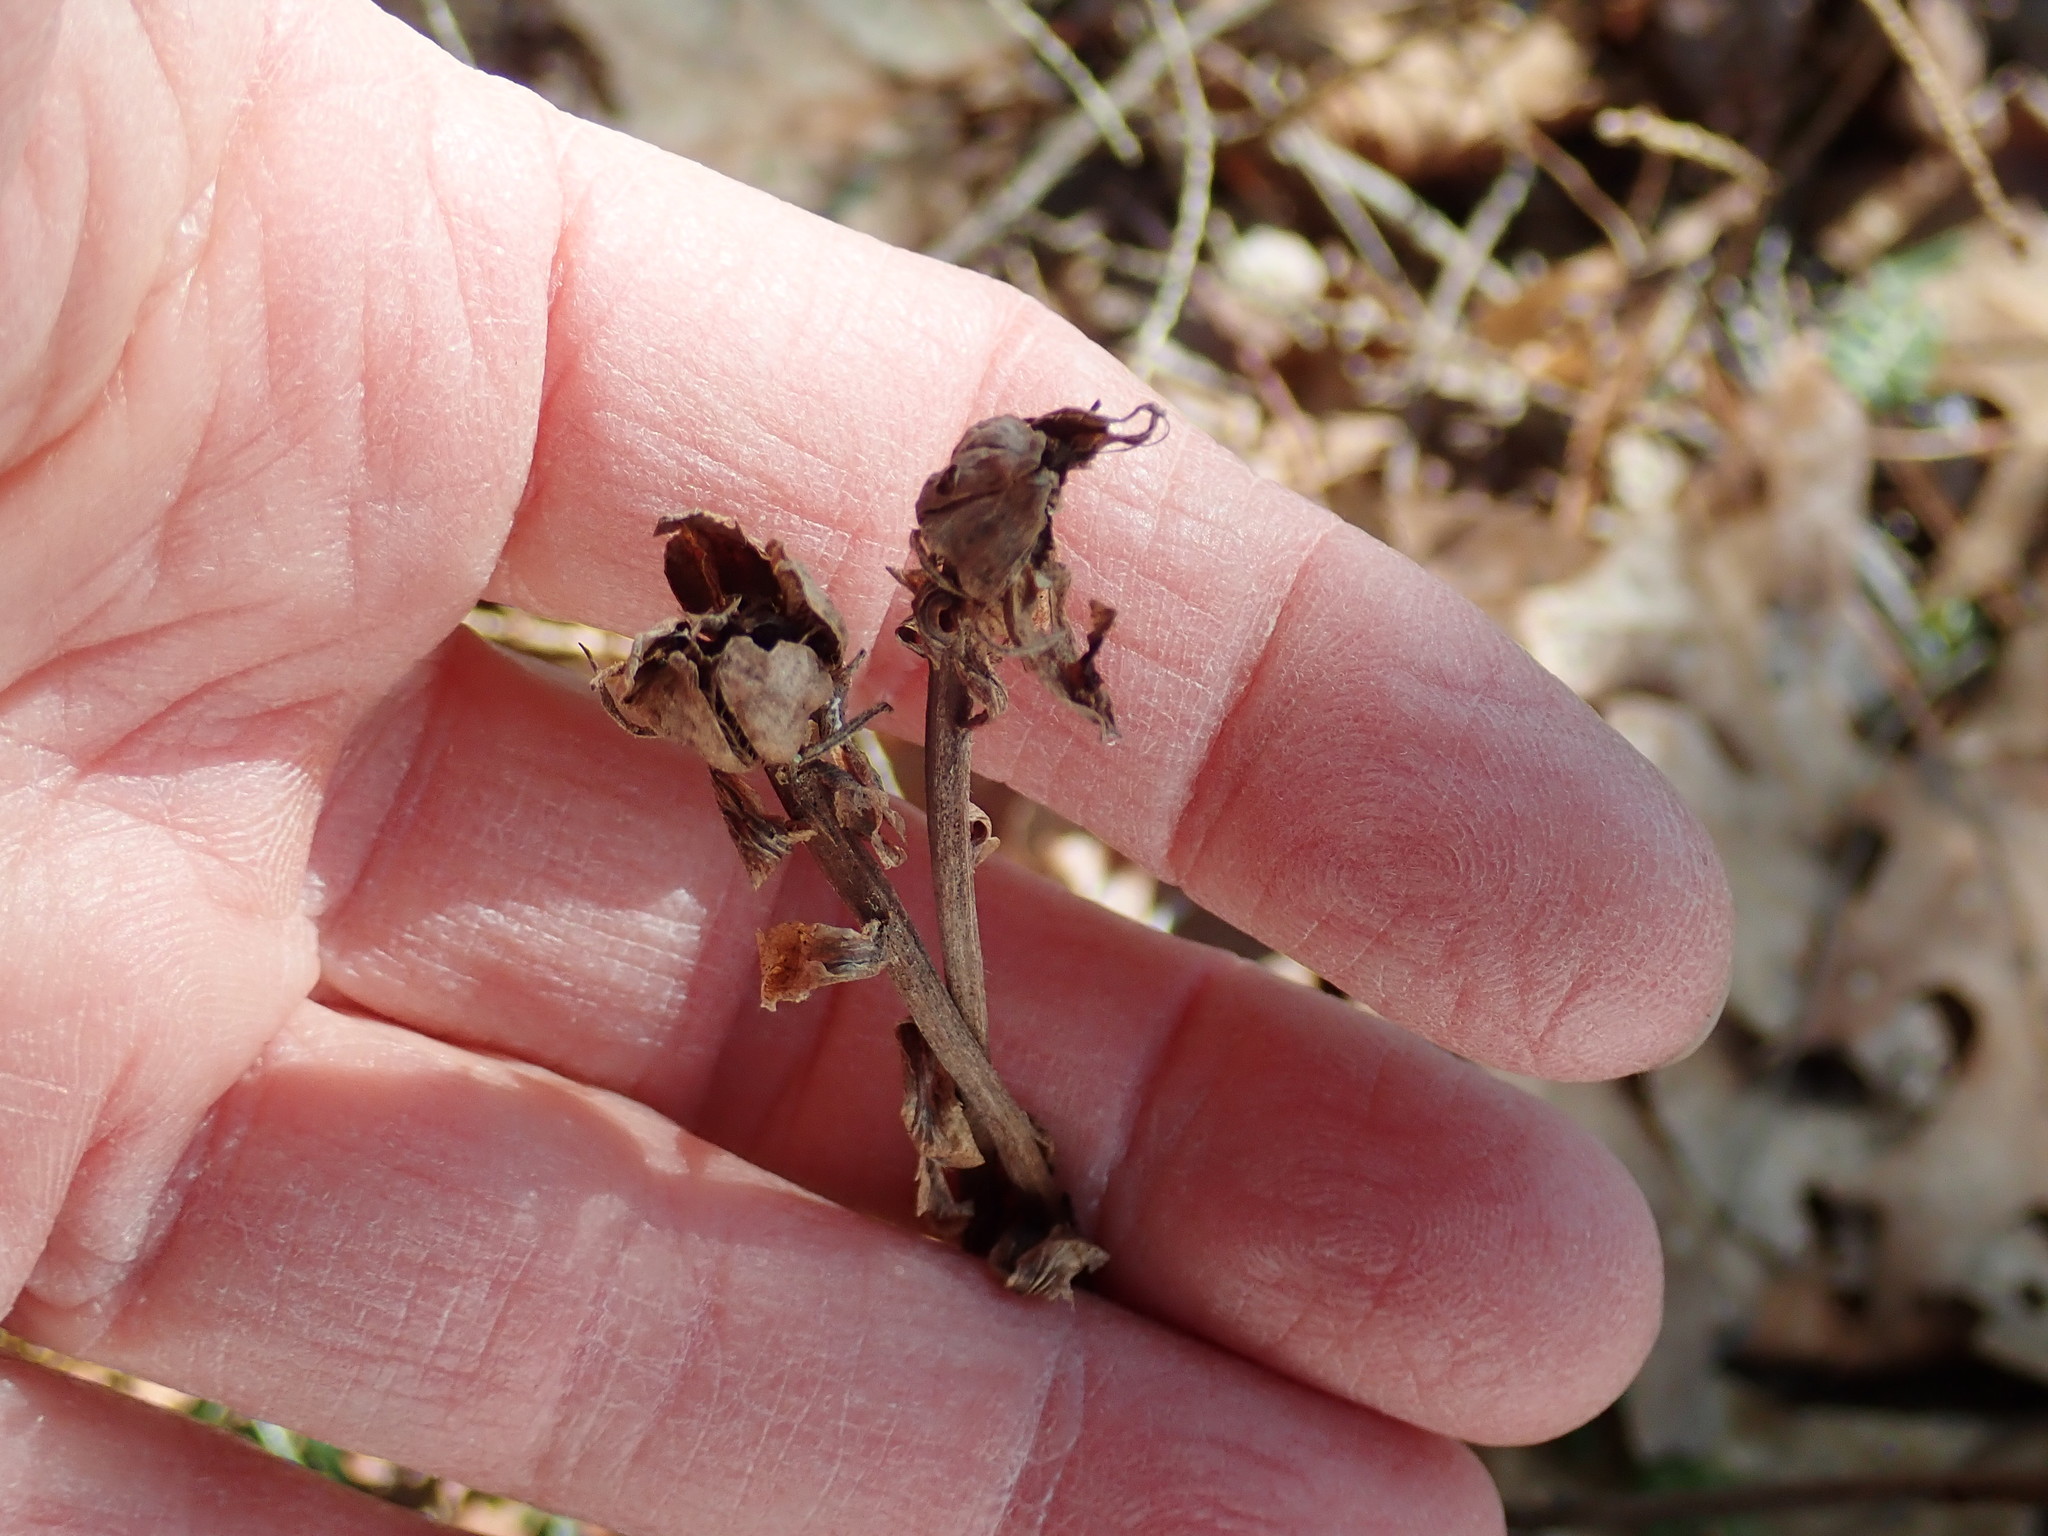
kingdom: Plantae
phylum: Tracheophyta
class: Magnoliopsida
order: Ericales
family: Ericaceae
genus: Monotropa
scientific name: Monotropa uniflora
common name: Convulsion root
